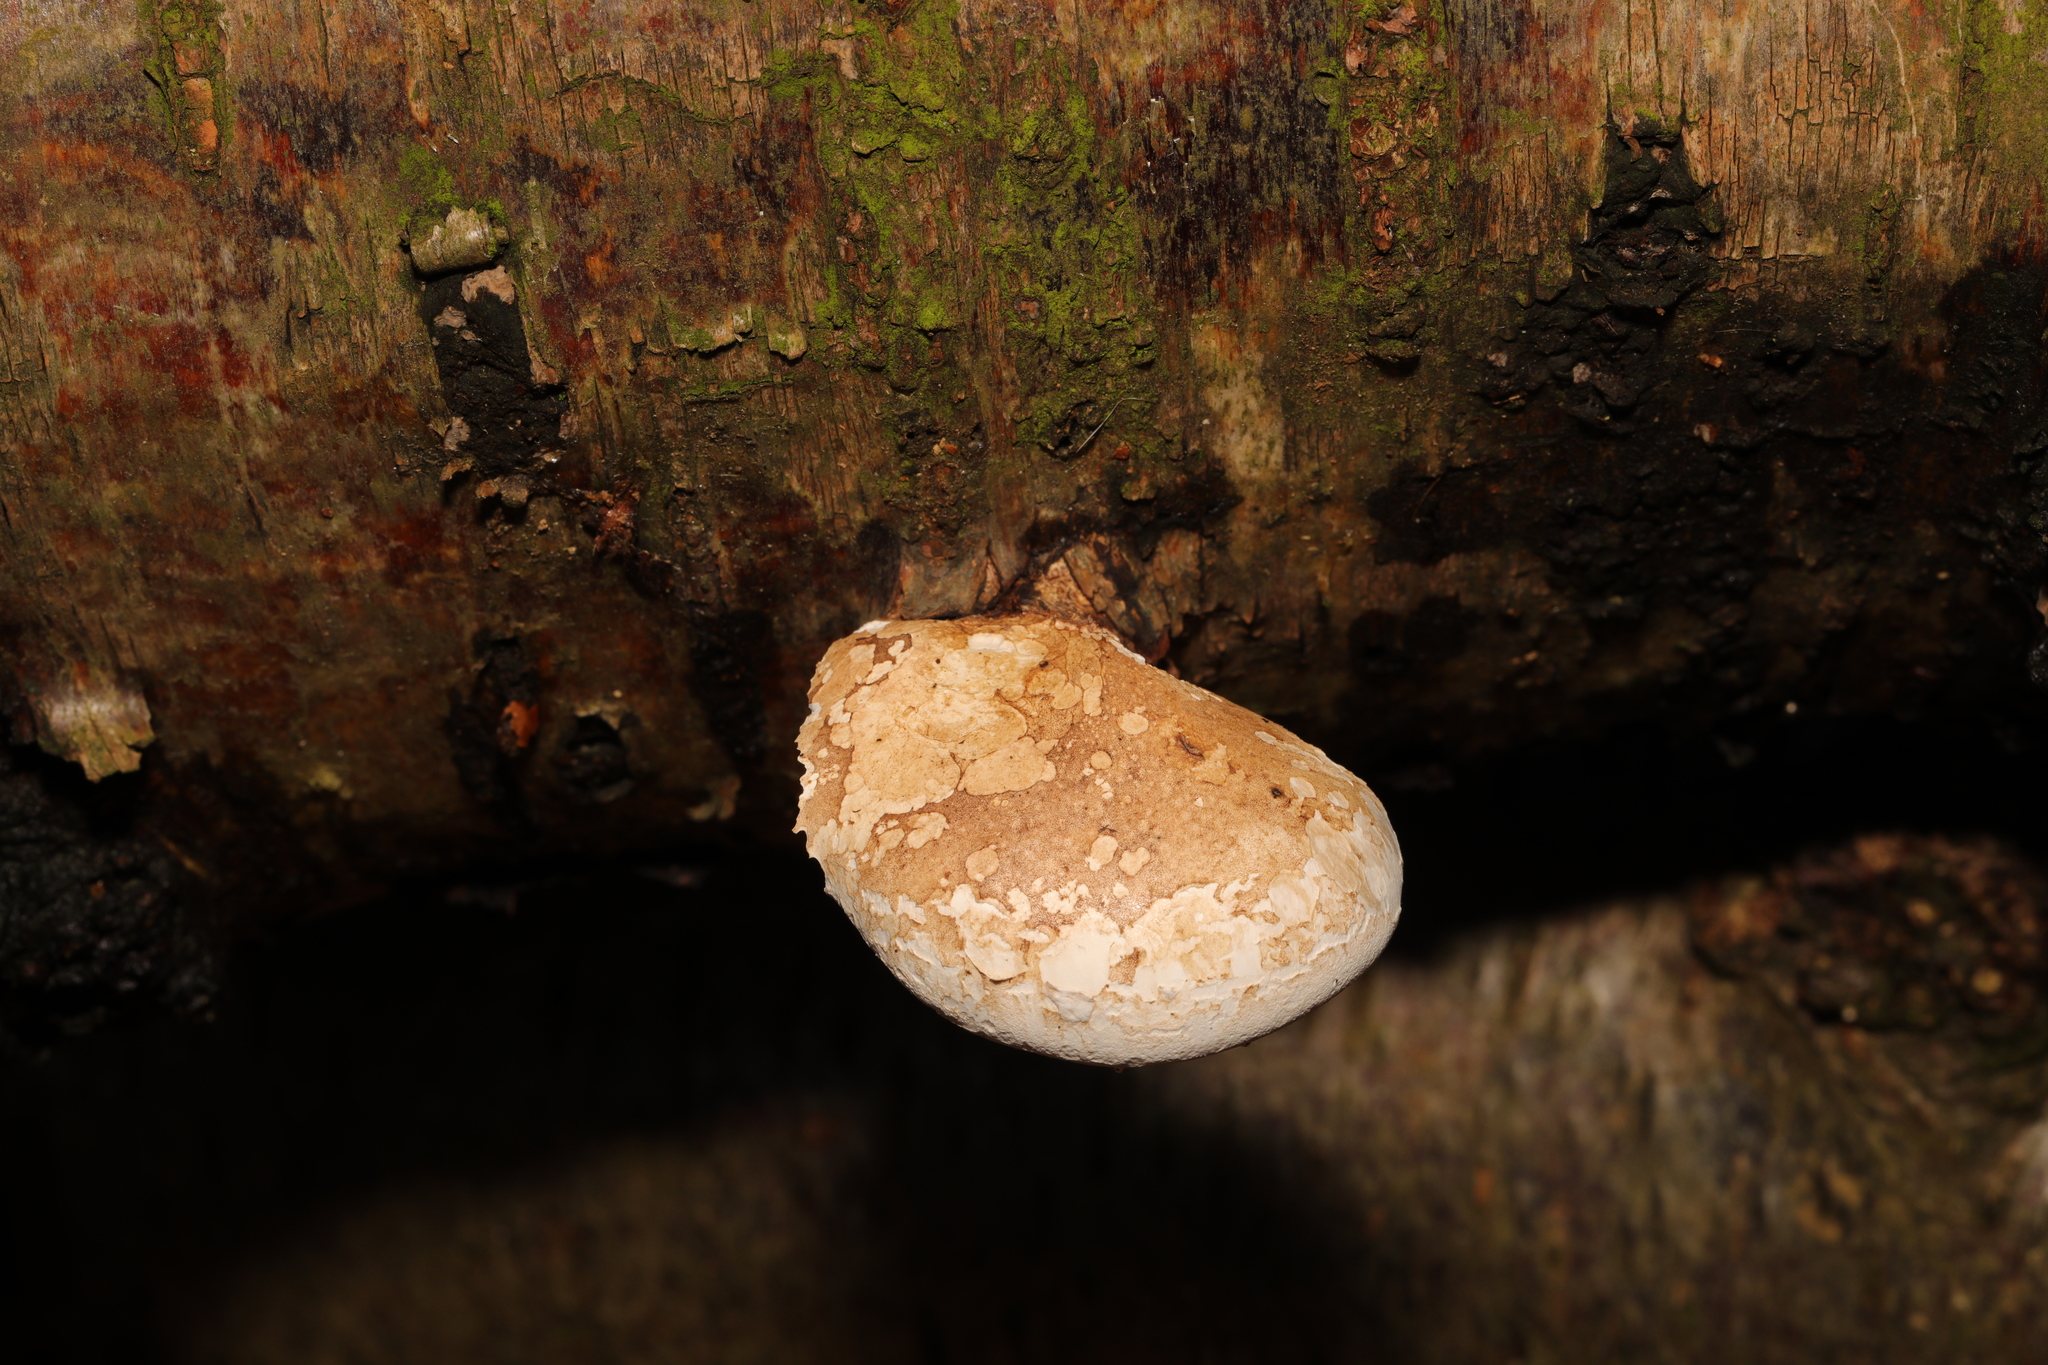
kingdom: Fungi
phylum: Basidiomycota
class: Agaricomycetes
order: Polyporales
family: Fomitopsidaceae
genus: Fomitopsis
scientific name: Fomitopsis betulina
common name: Birch polypore
